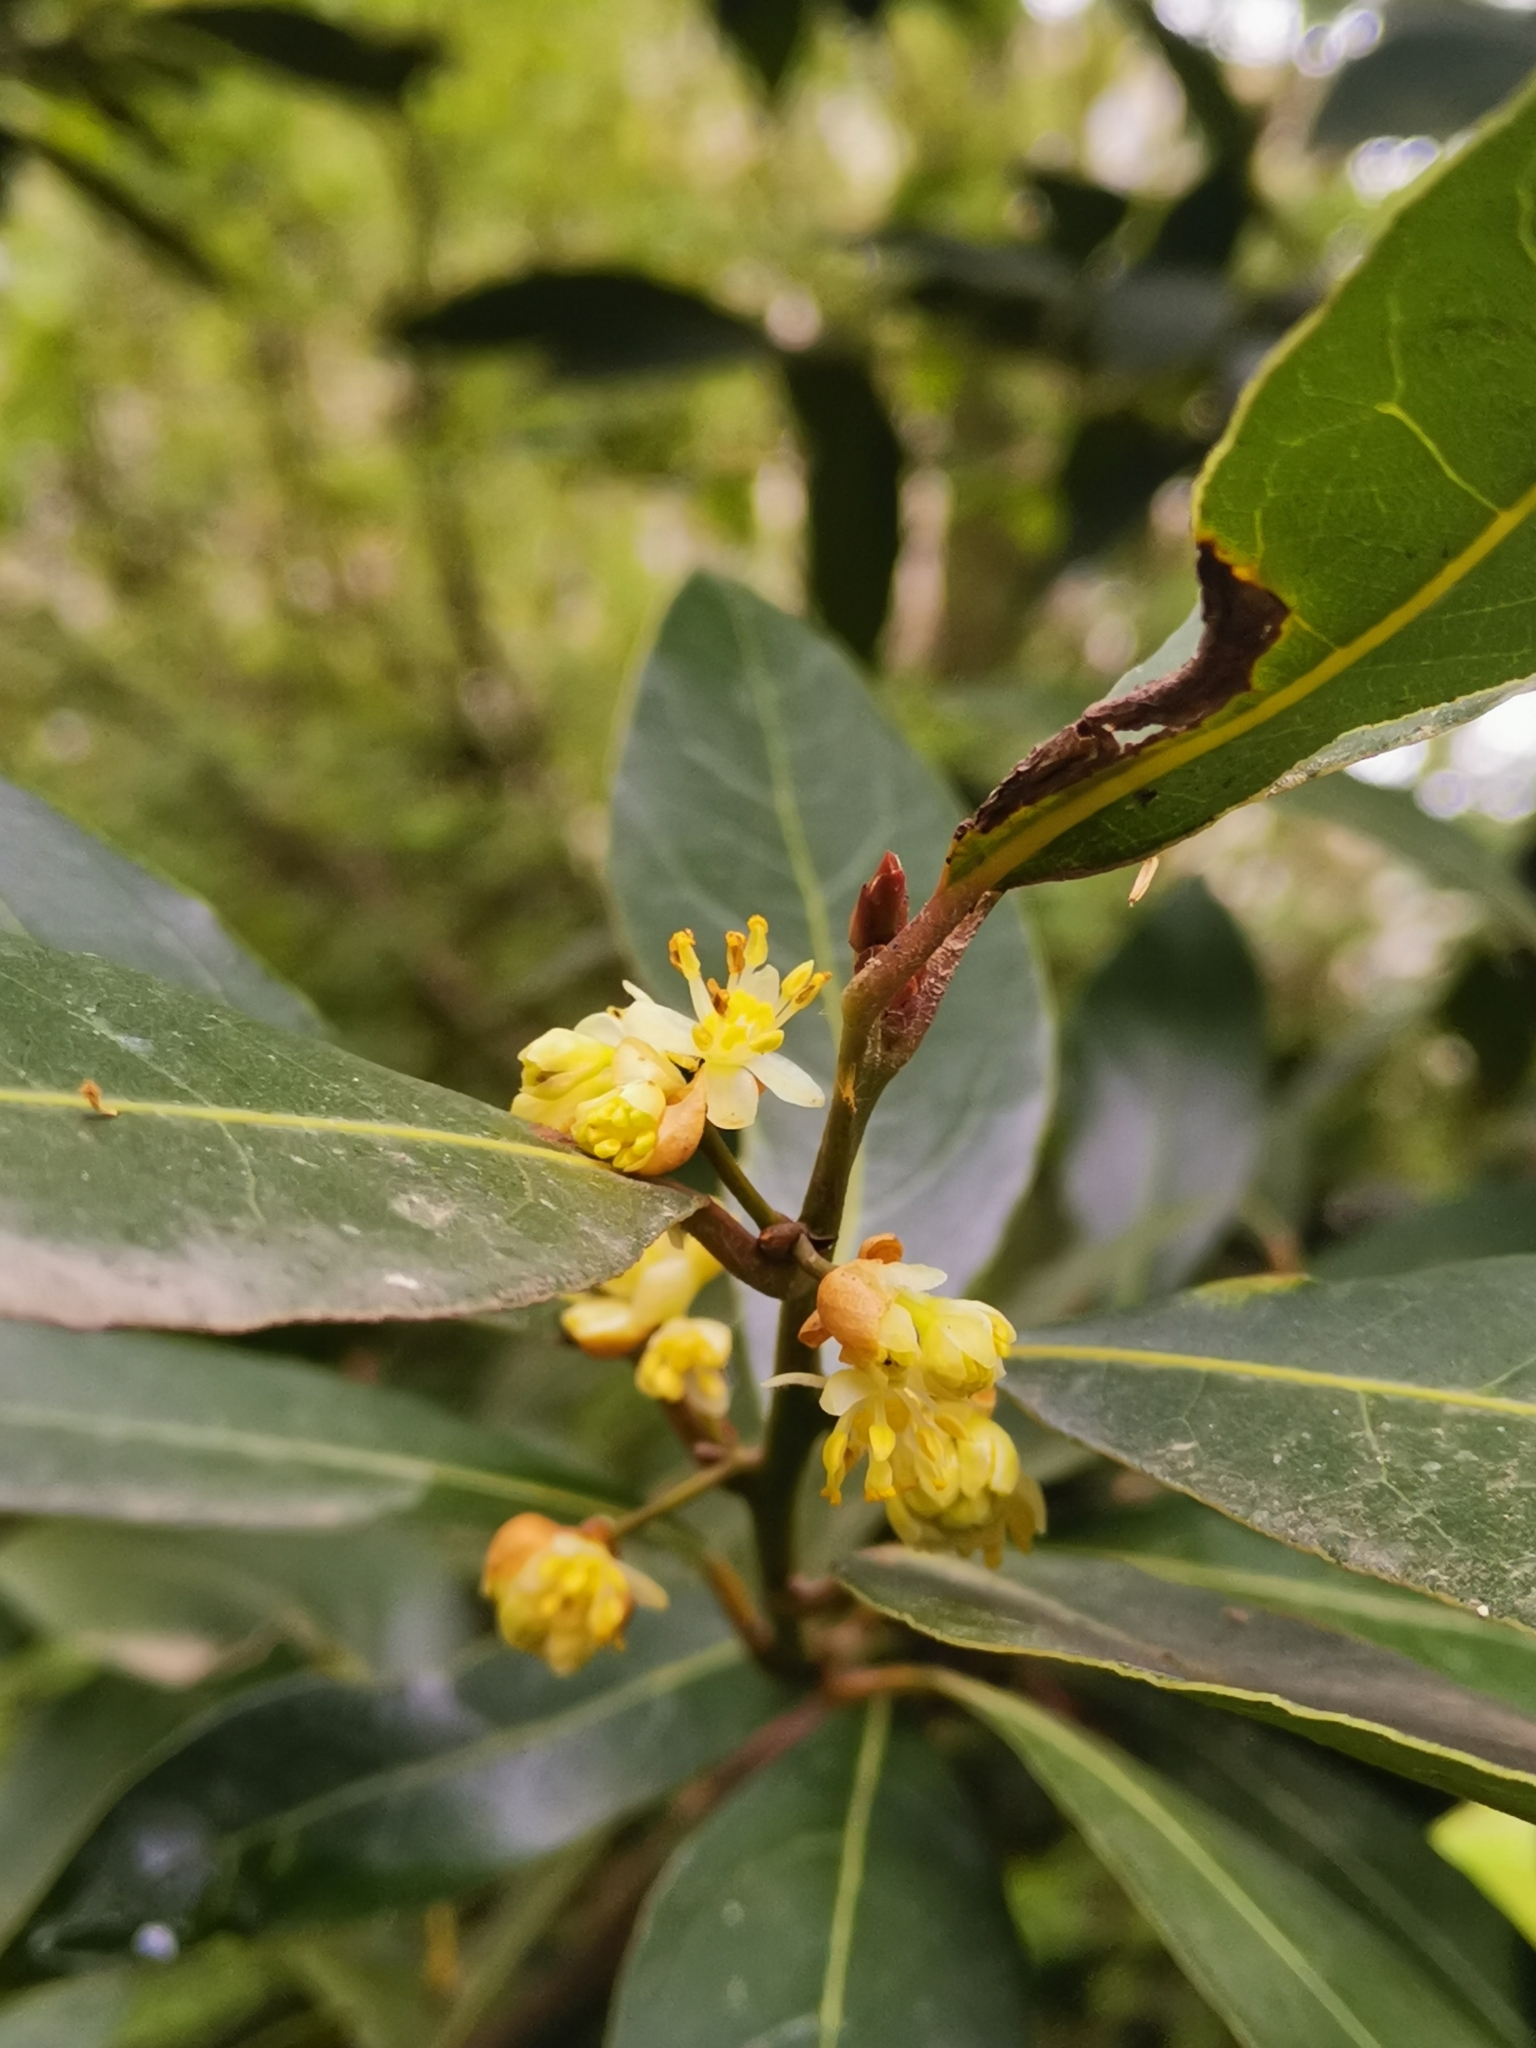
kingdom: Plantae
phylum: Tracheophyta
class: Magnoliopsida
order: Laurales
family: Lauraceae
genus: Laurus
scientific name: Laurus nobilis
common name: Bay
